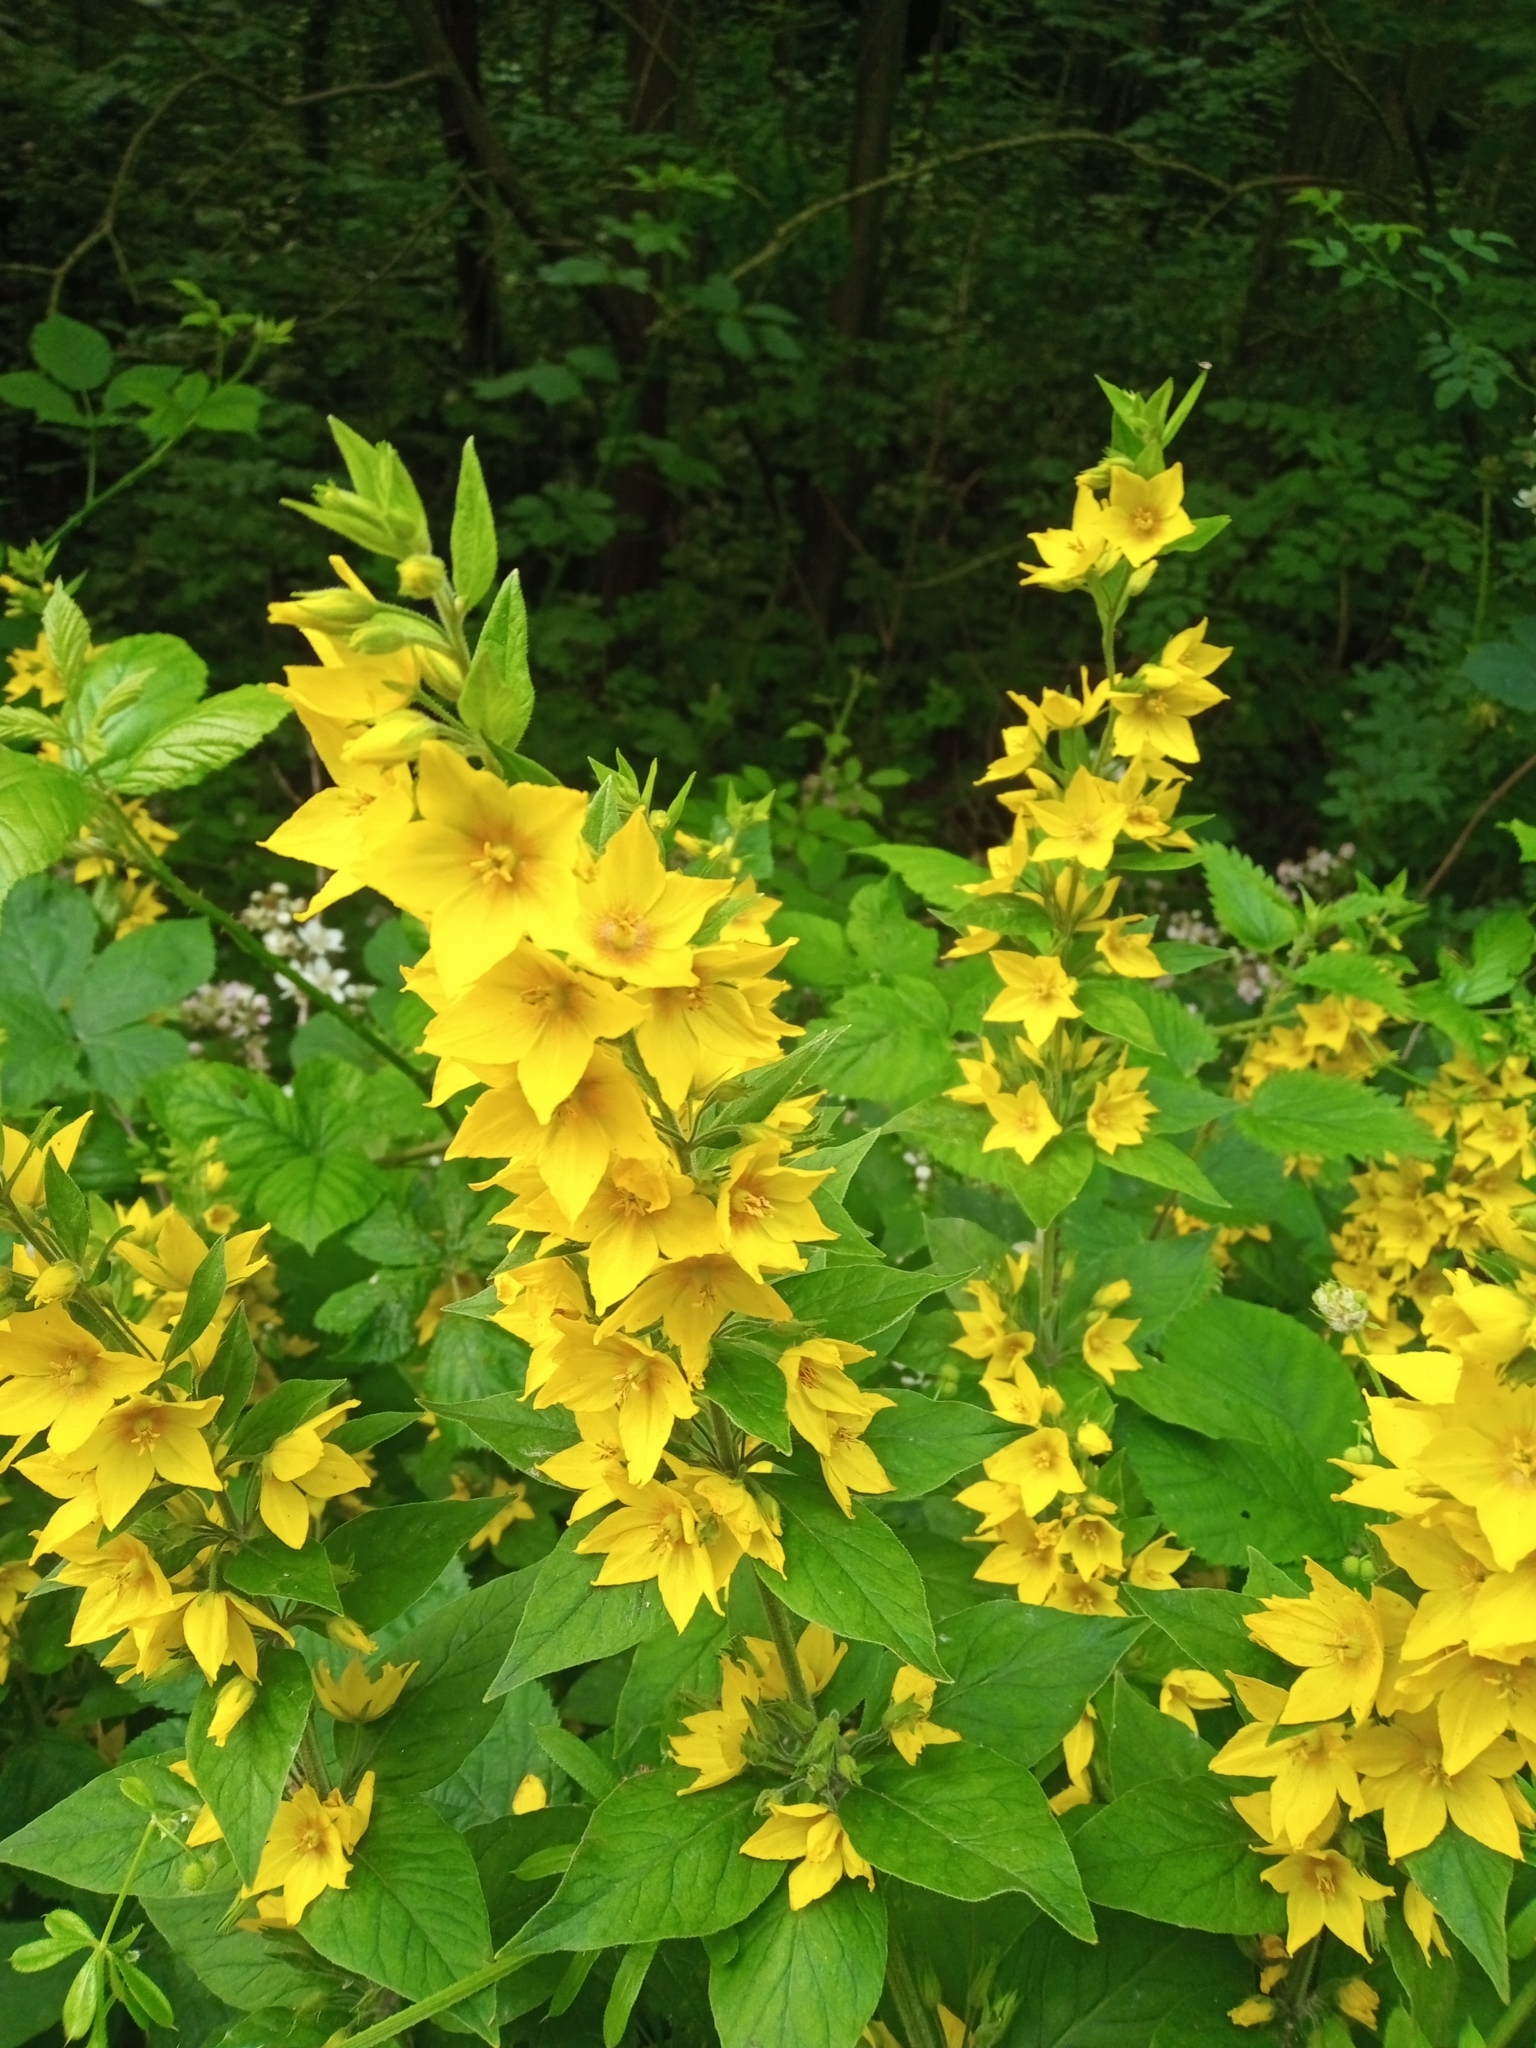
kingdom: Plantae
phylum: Tracheophyta
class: Magnoliopsida
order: Ericales
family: Primulaceae
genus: Lysimachia
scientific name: Lysimachia punctata
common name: Dotted loosestrife
